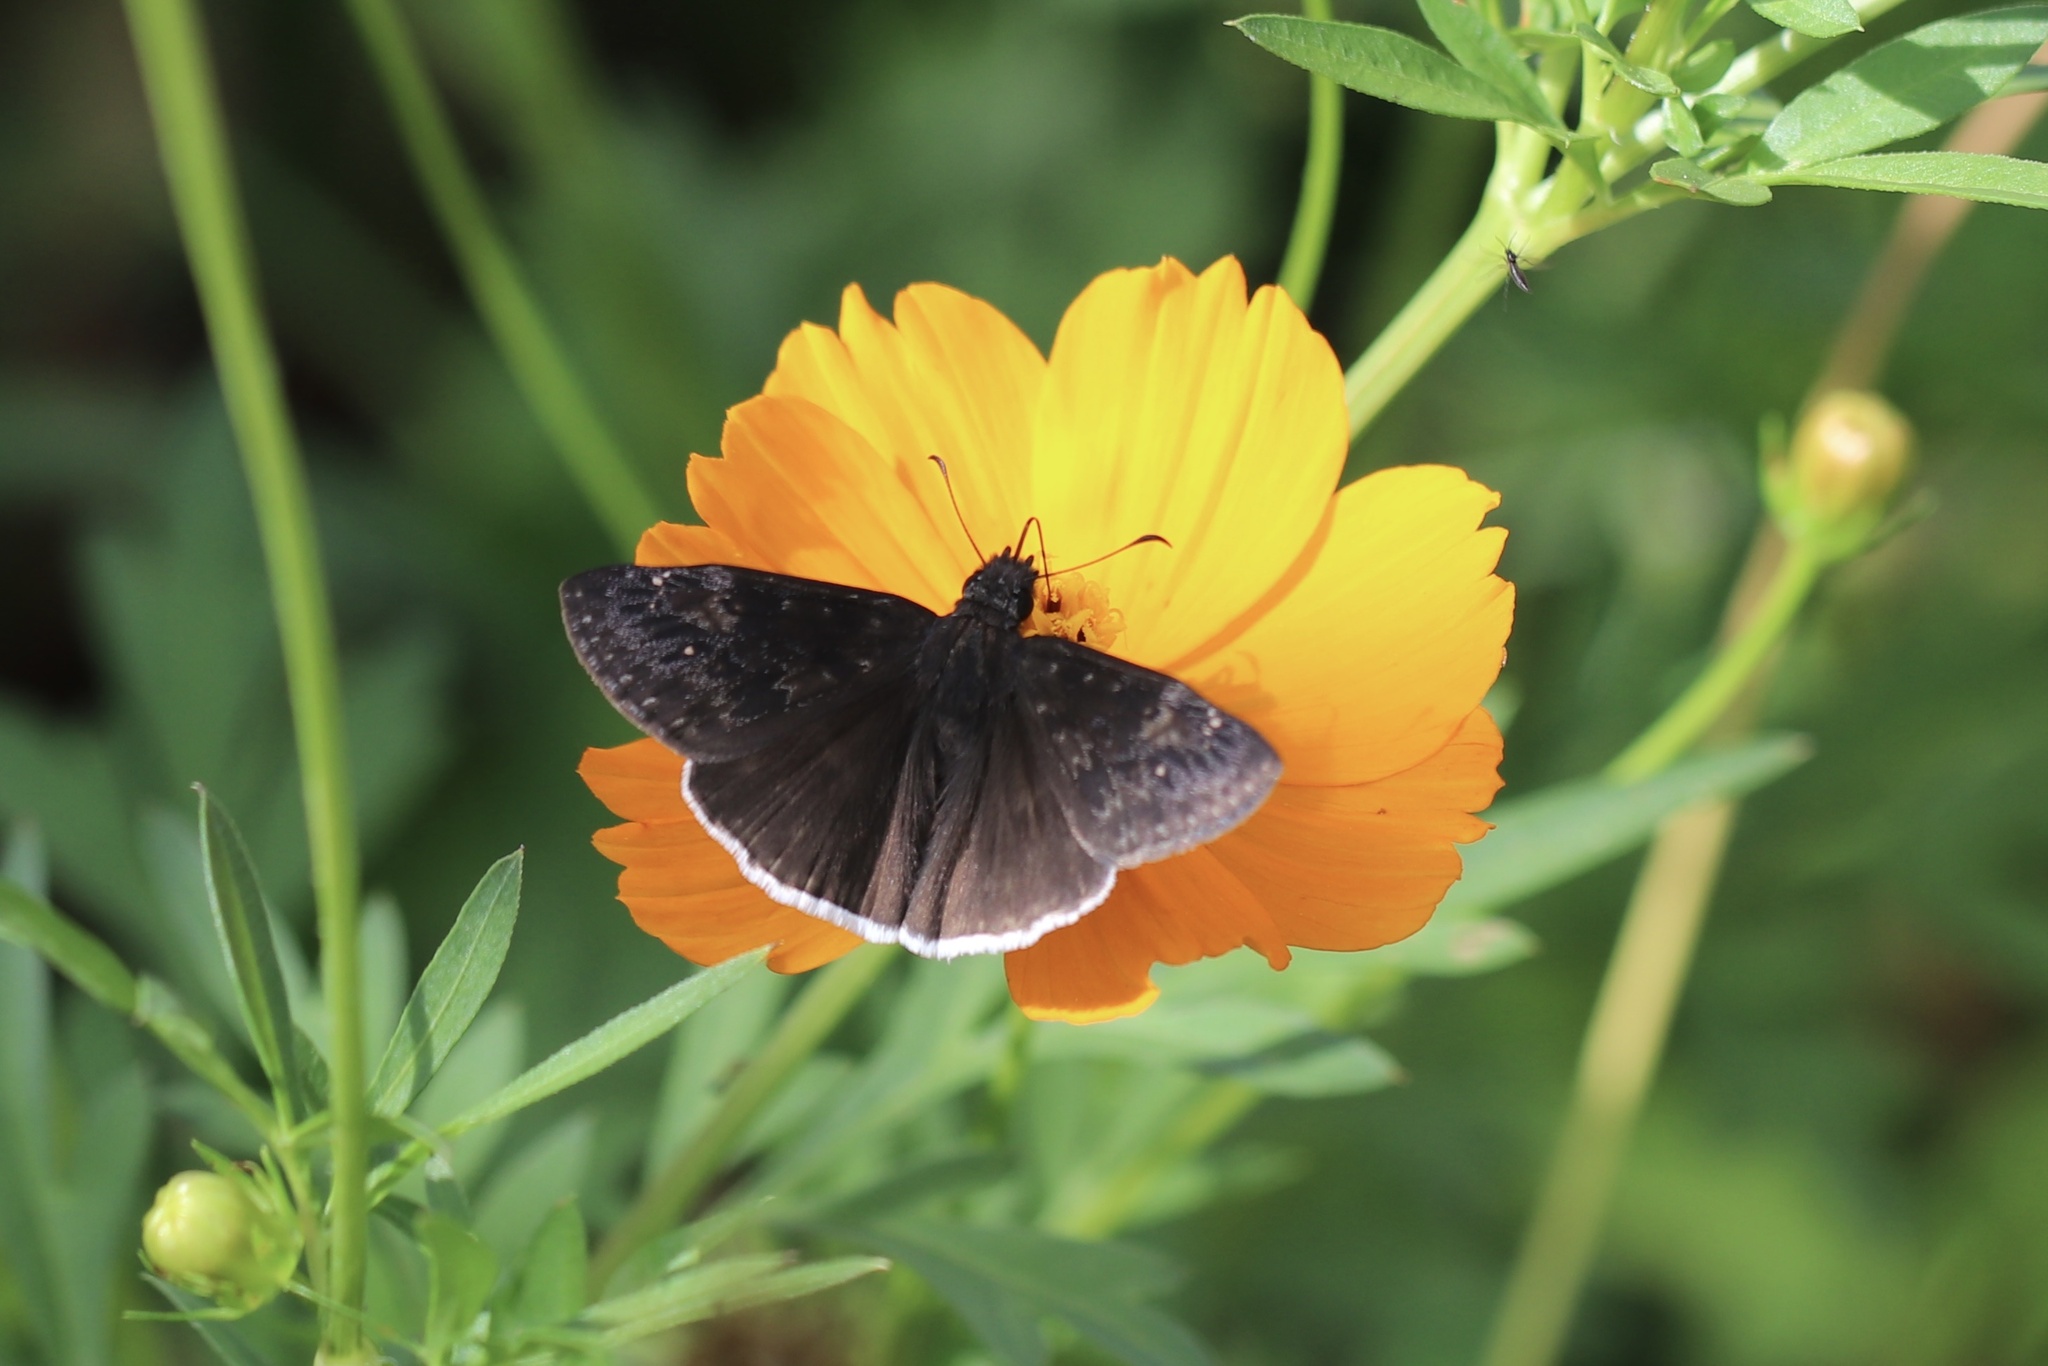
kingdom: Animalia
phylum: Arthropoda
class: Insecta
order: Lepidoptera
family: Hesperiidae
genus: Erynnis
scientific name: Erynnis funeralis
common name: Funereal duskywing
